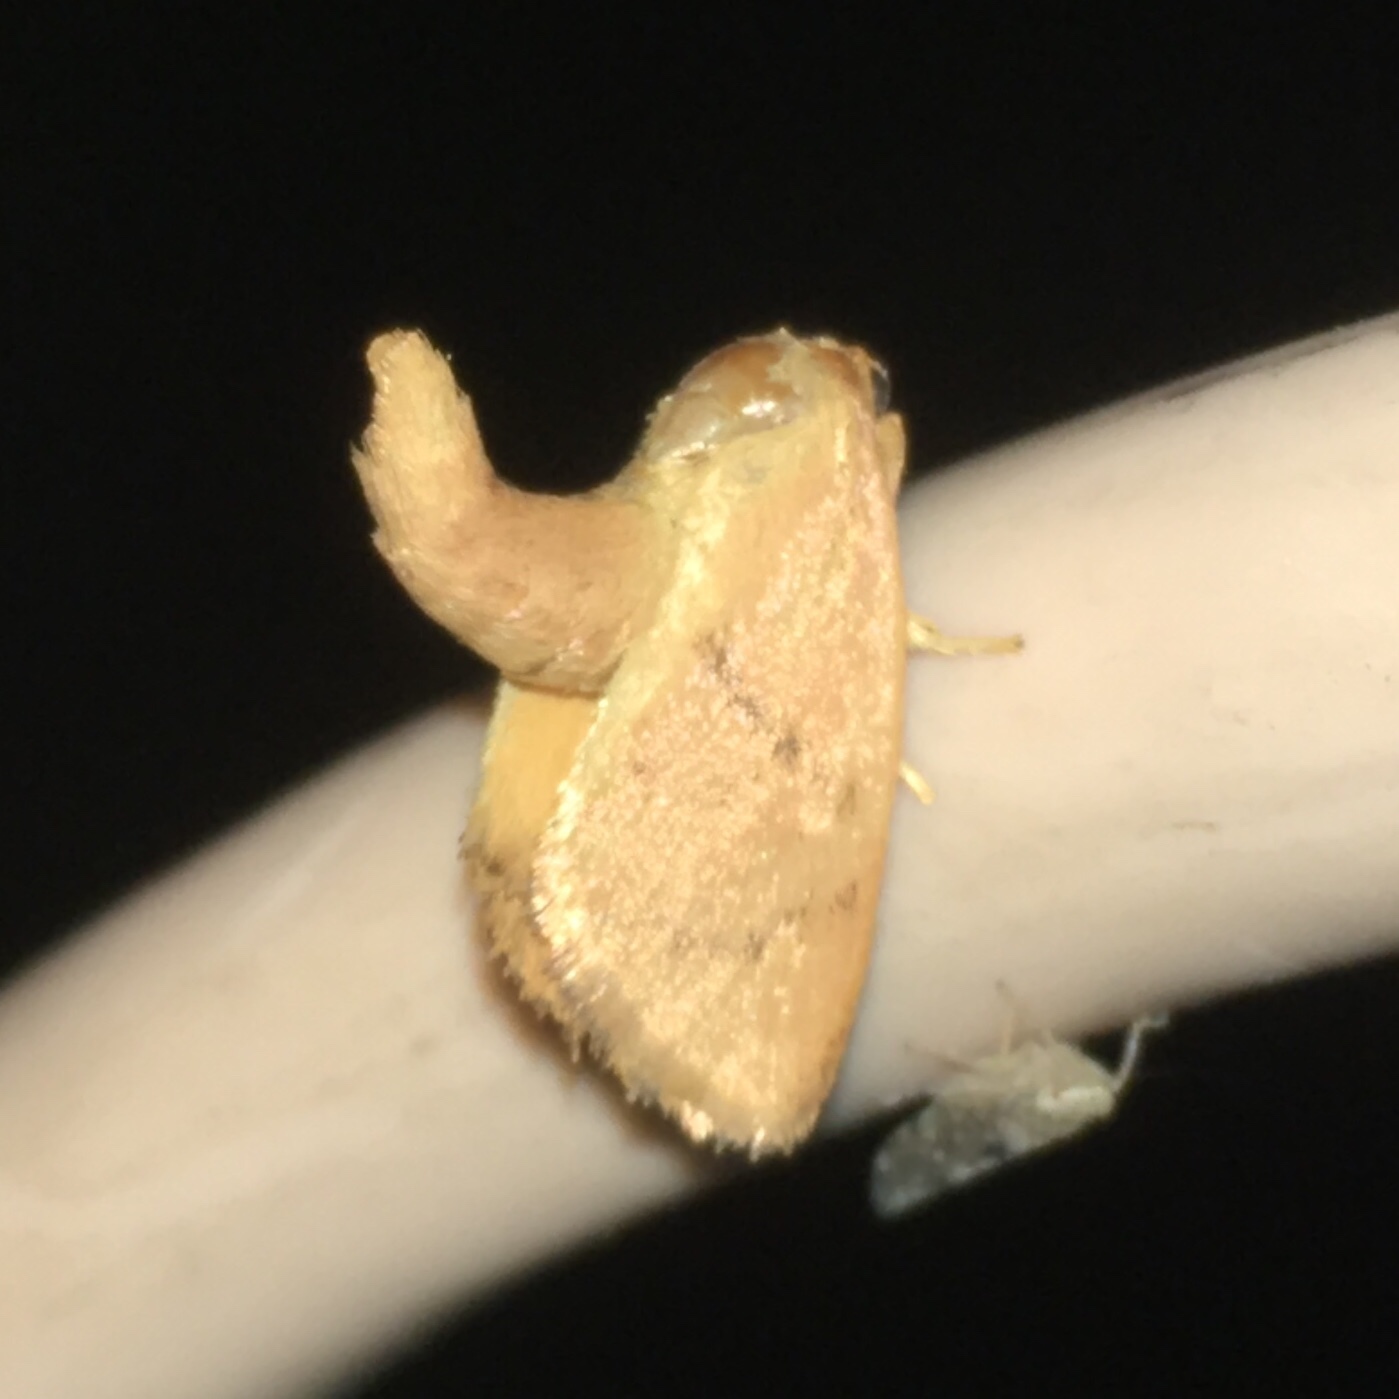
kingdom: Animalia
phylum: Arthropoda
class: Insecta
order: Lepidoptera
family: Limacodidae
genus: Tortricidia
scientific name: Tortricidia pallida
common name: Red-crossed button slug moth
